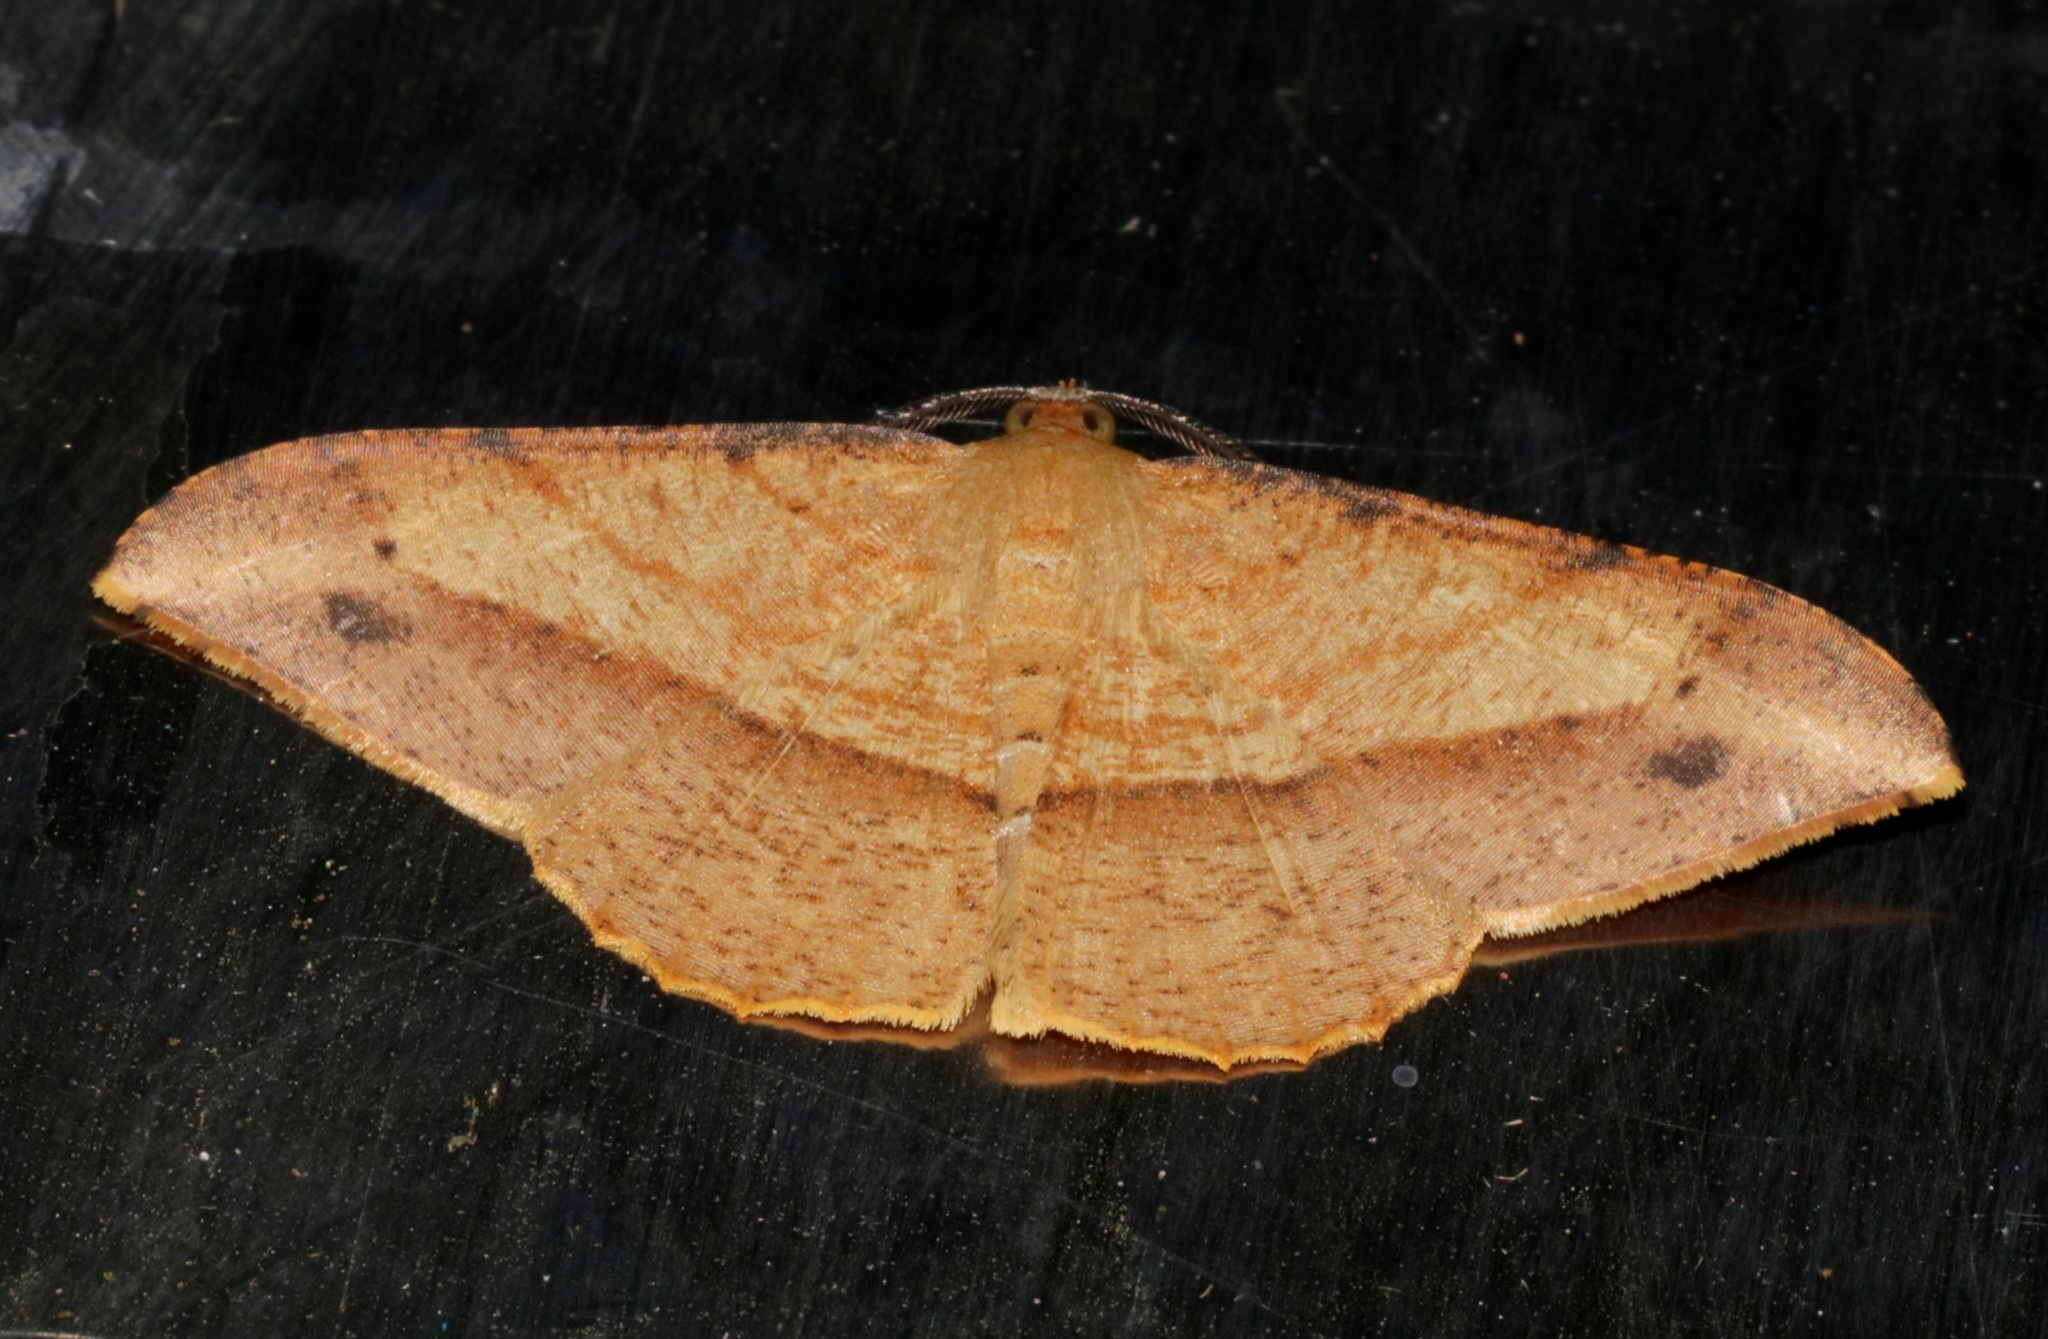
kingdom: Animalia
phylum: Arthropoda
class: Insecta
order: Lepidoptera
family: Geometridae
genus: Pseudonadagara
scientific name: Pseudonadagara semicolor
